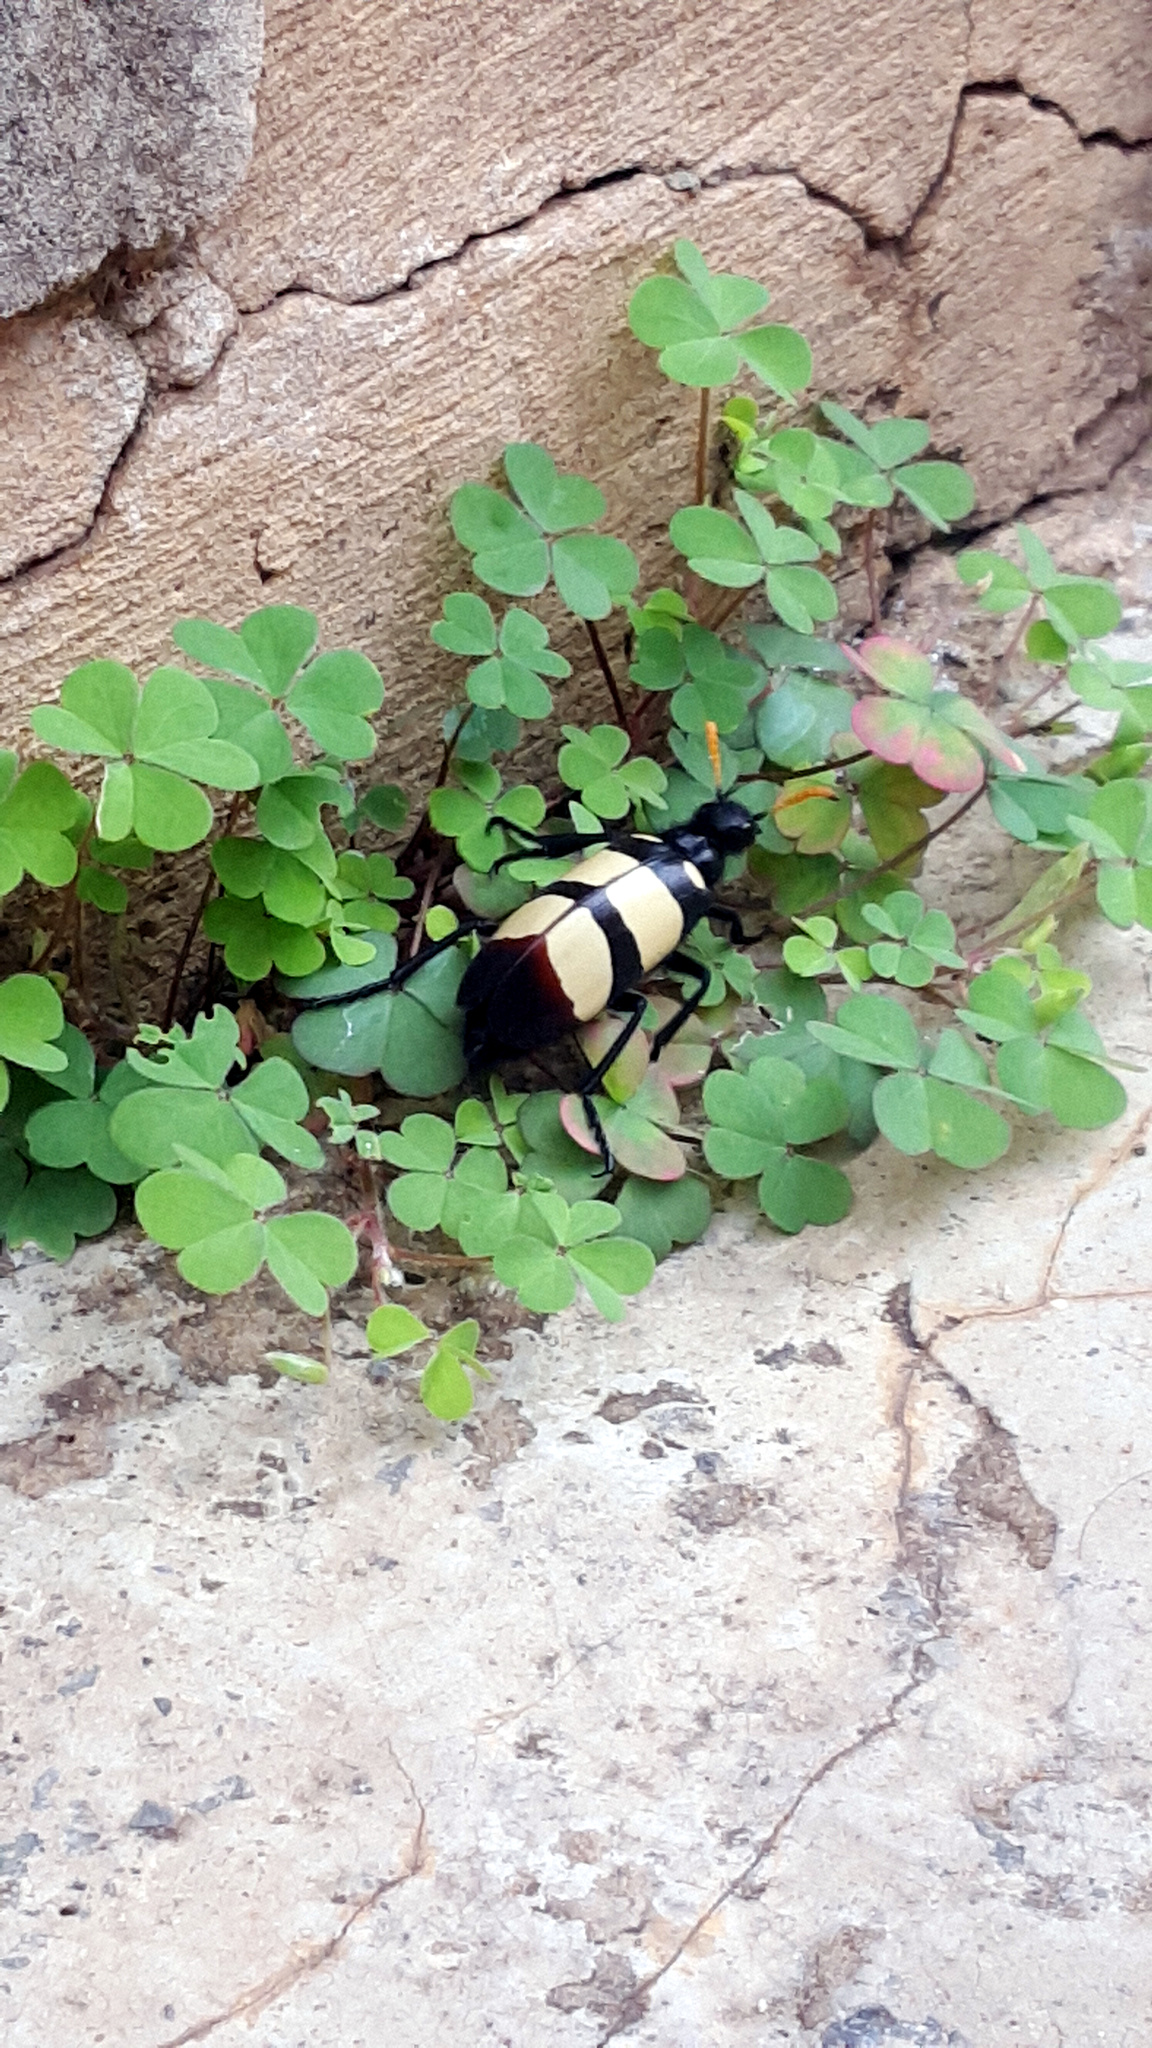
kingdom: Animalia
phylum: Arthropoda
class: Insecta
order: Coleoptera
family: Meloidae
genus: Hycleus
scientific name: Hycleus
